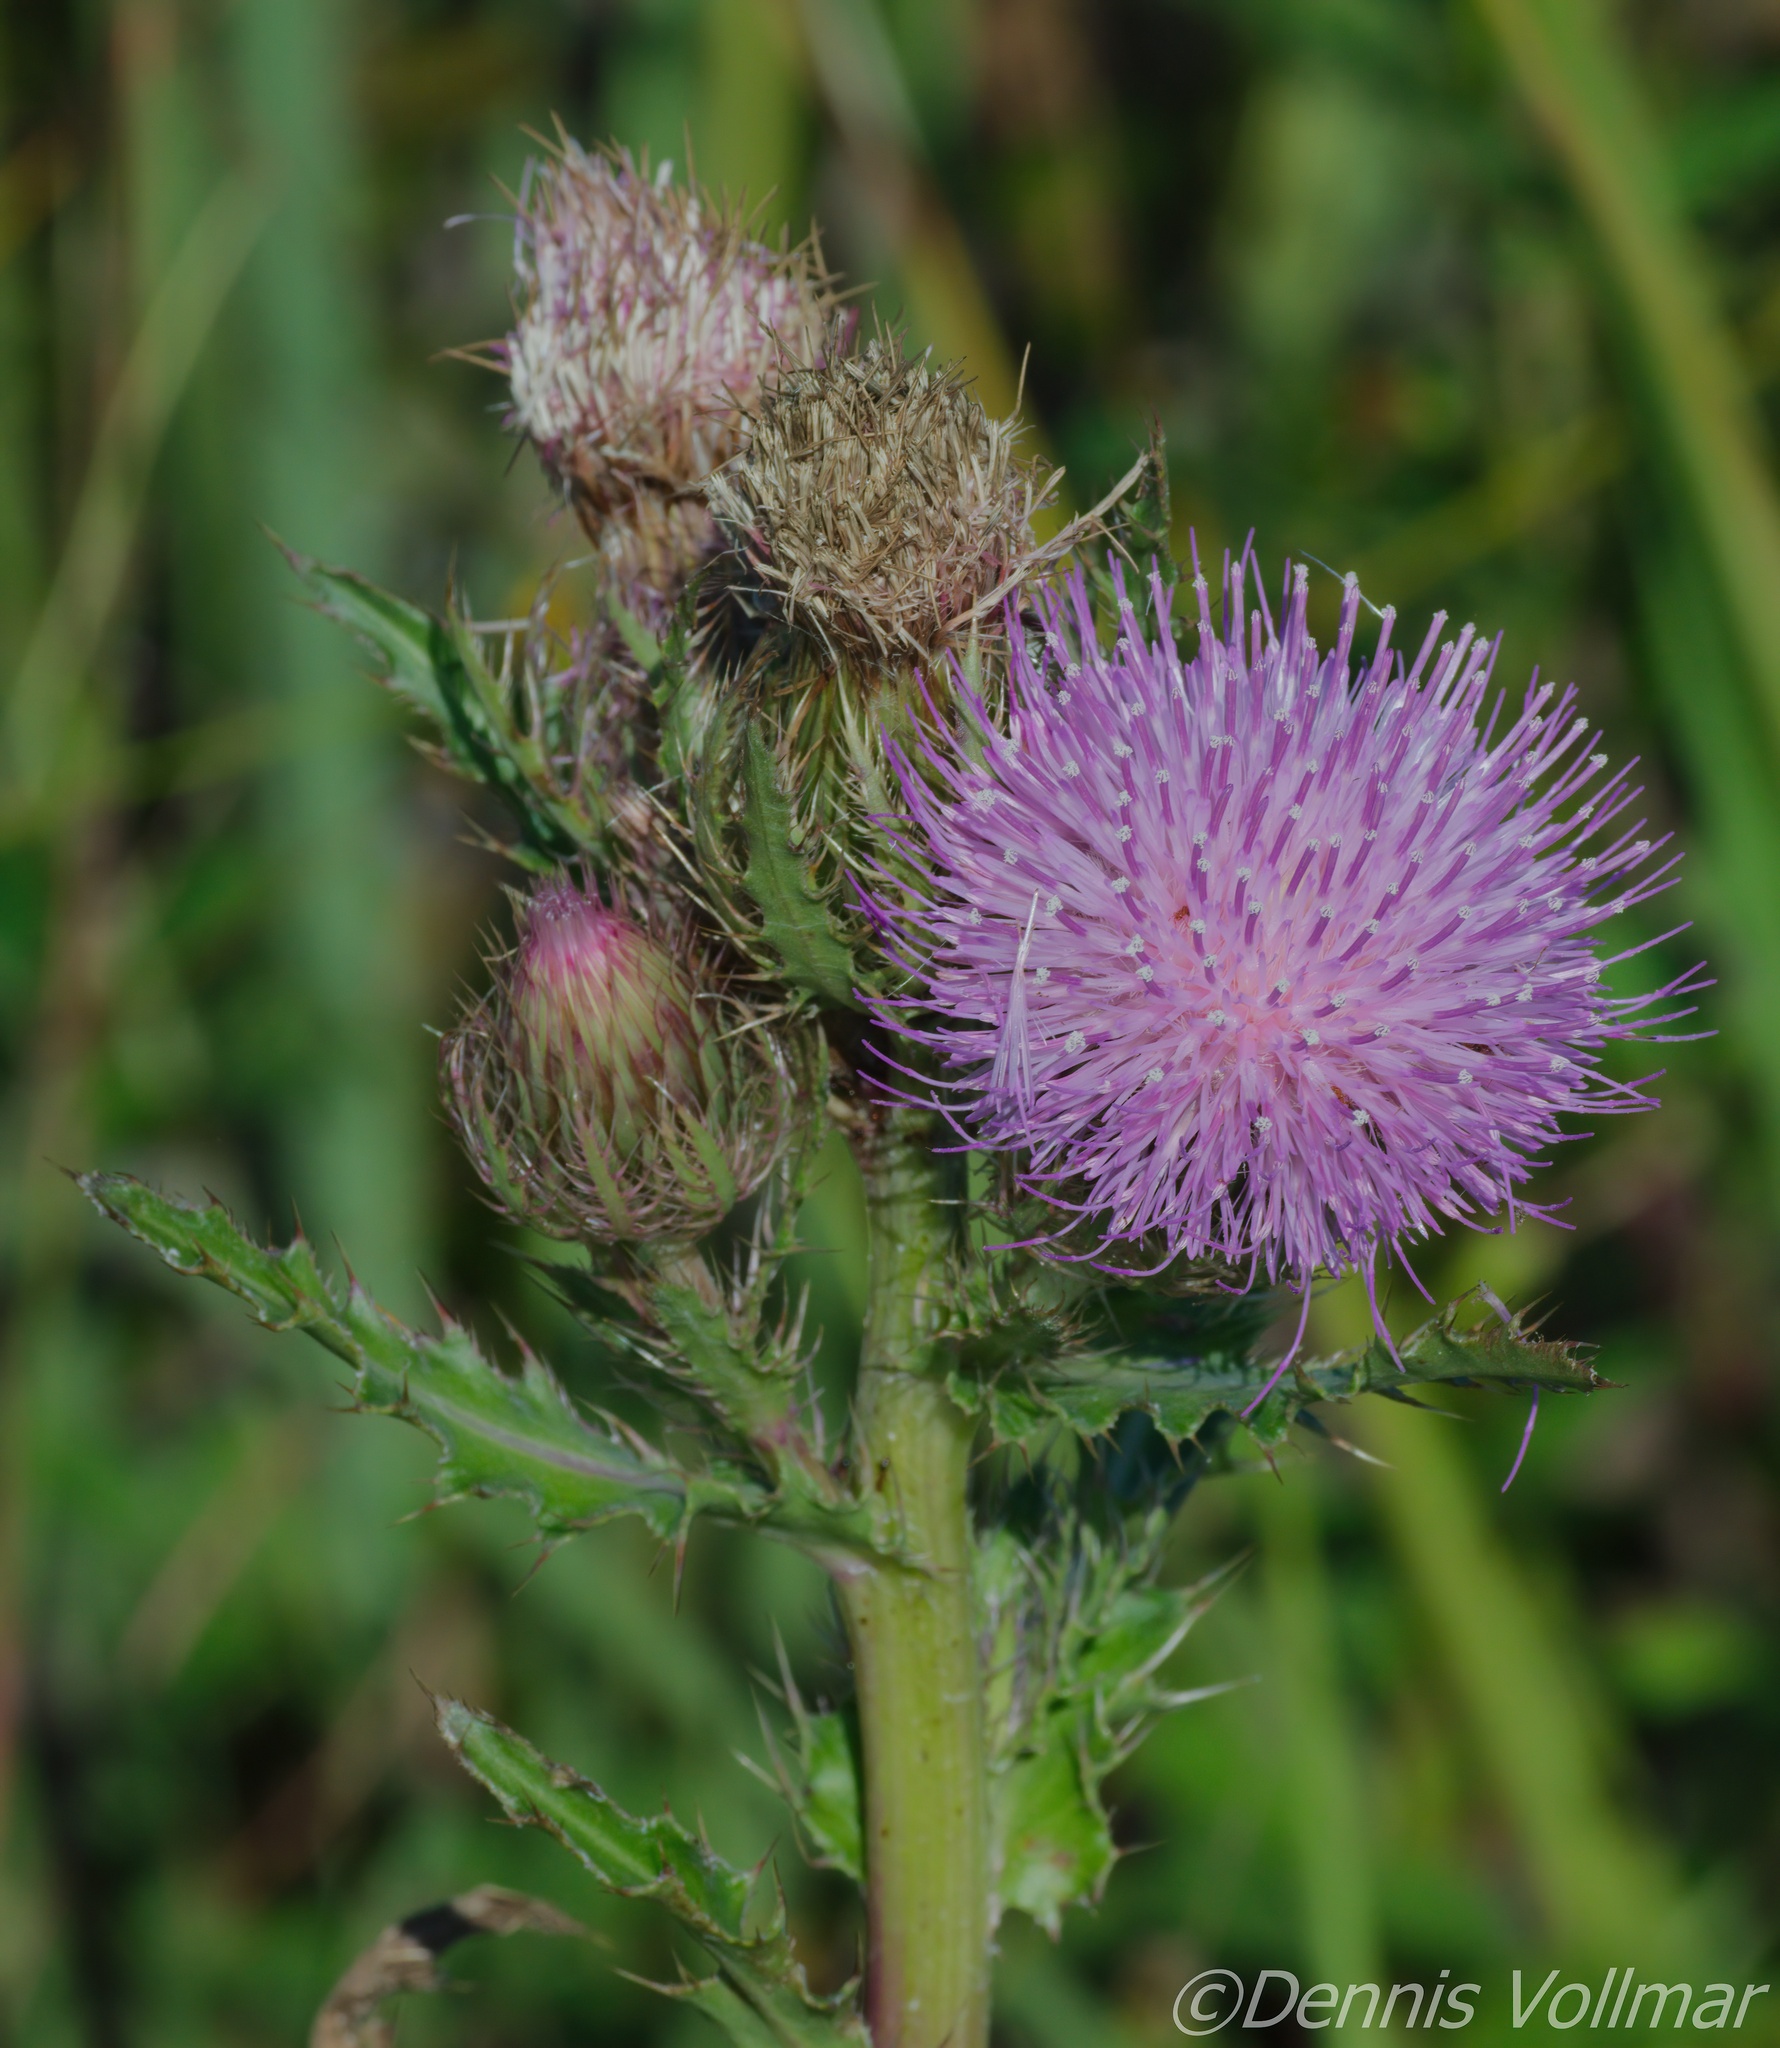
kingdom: Plantae
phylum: Tracheophyta
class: Magnoliopsida
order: Asterales
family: Asteraceae
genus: Cirsium
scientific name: Cirsium horridulum
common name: Bristly thistle
